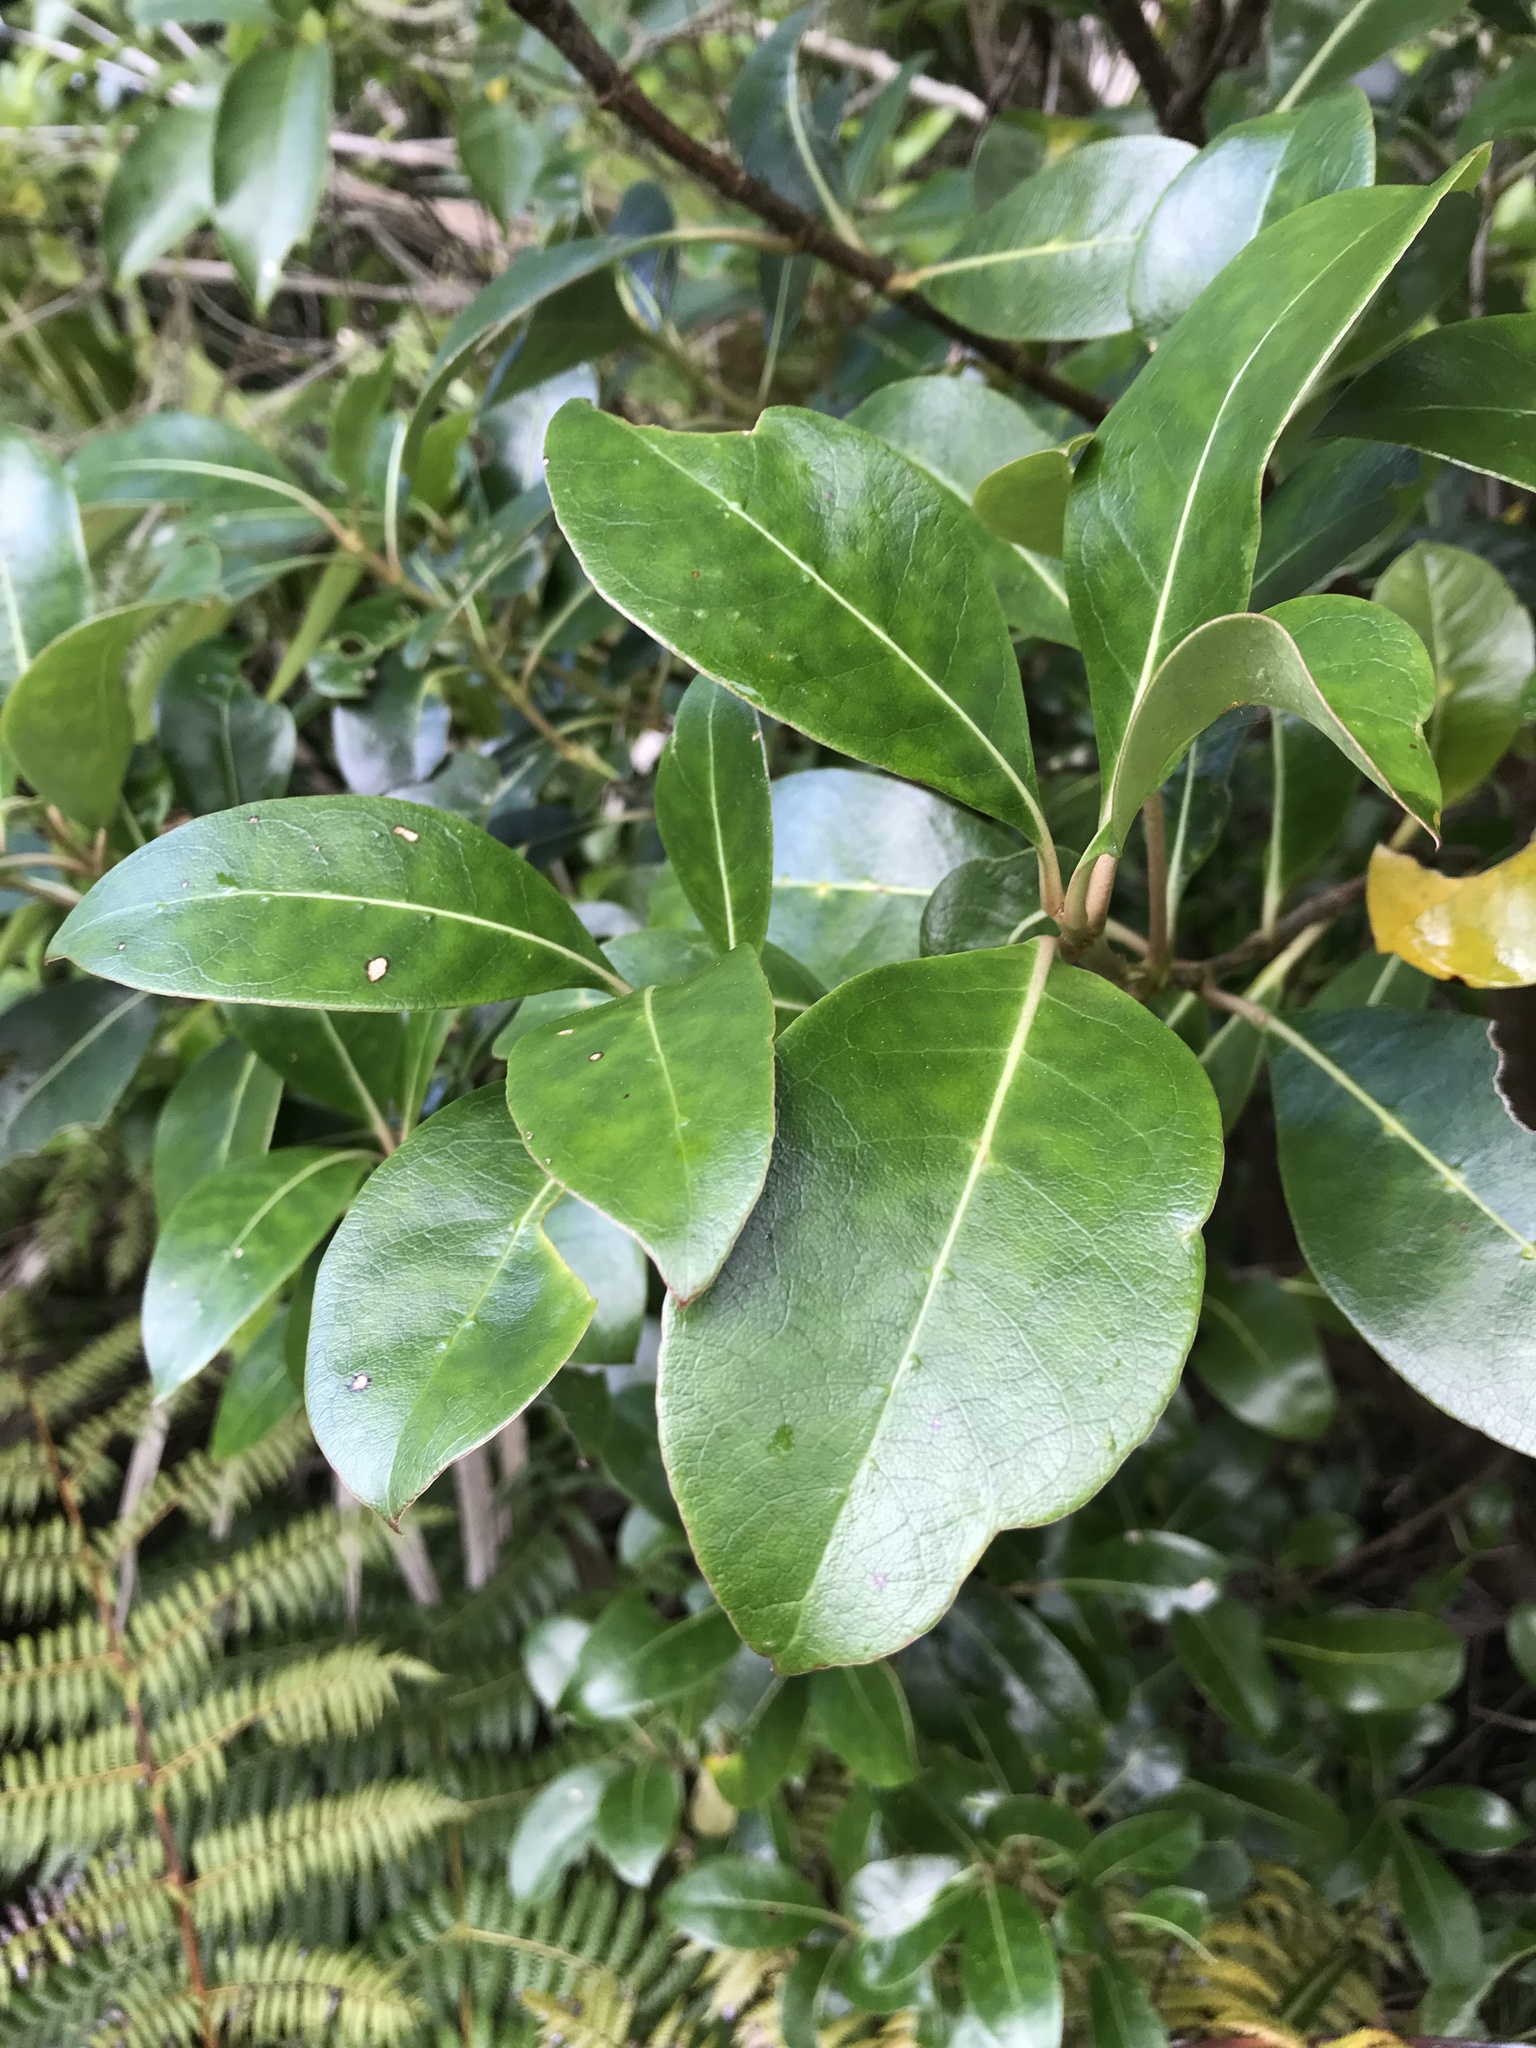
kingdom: Plantae
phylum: Tracheophyta
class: Magnoliopsida
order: Gentianales
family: Rubiaceae
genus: Coprosma
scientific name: Coprosma lucida
